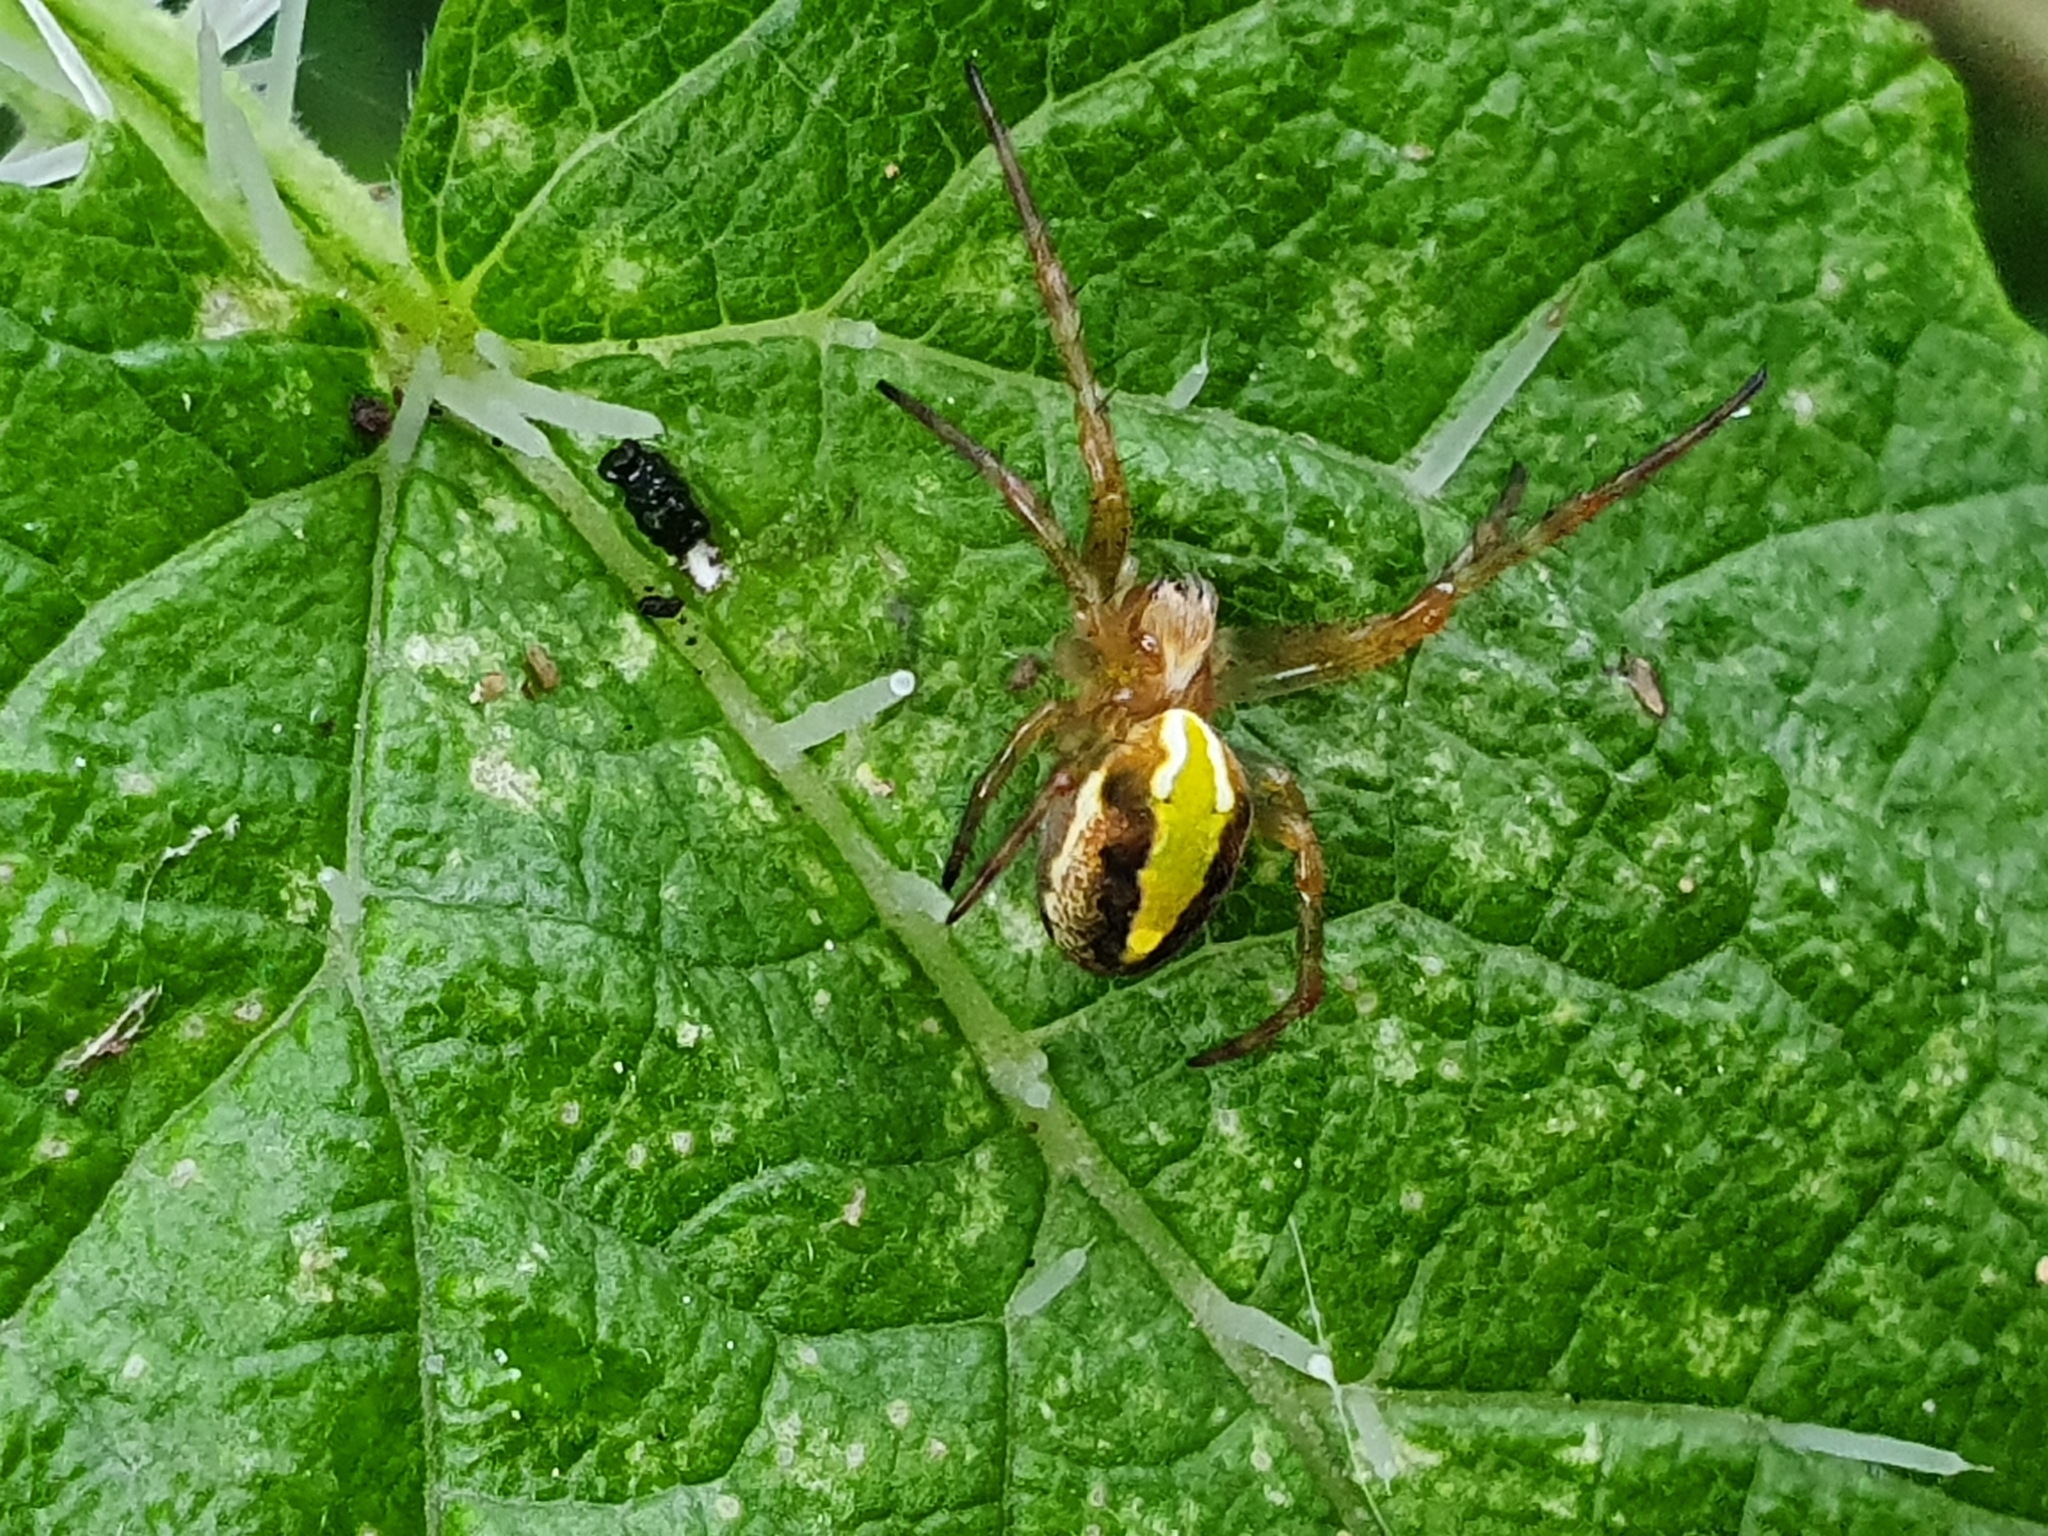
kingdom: Animalia
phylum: Arthropoda
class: Arachnida
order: Araneae
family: Araneidae
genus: Novaranea
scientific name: Novaranea queribunda
